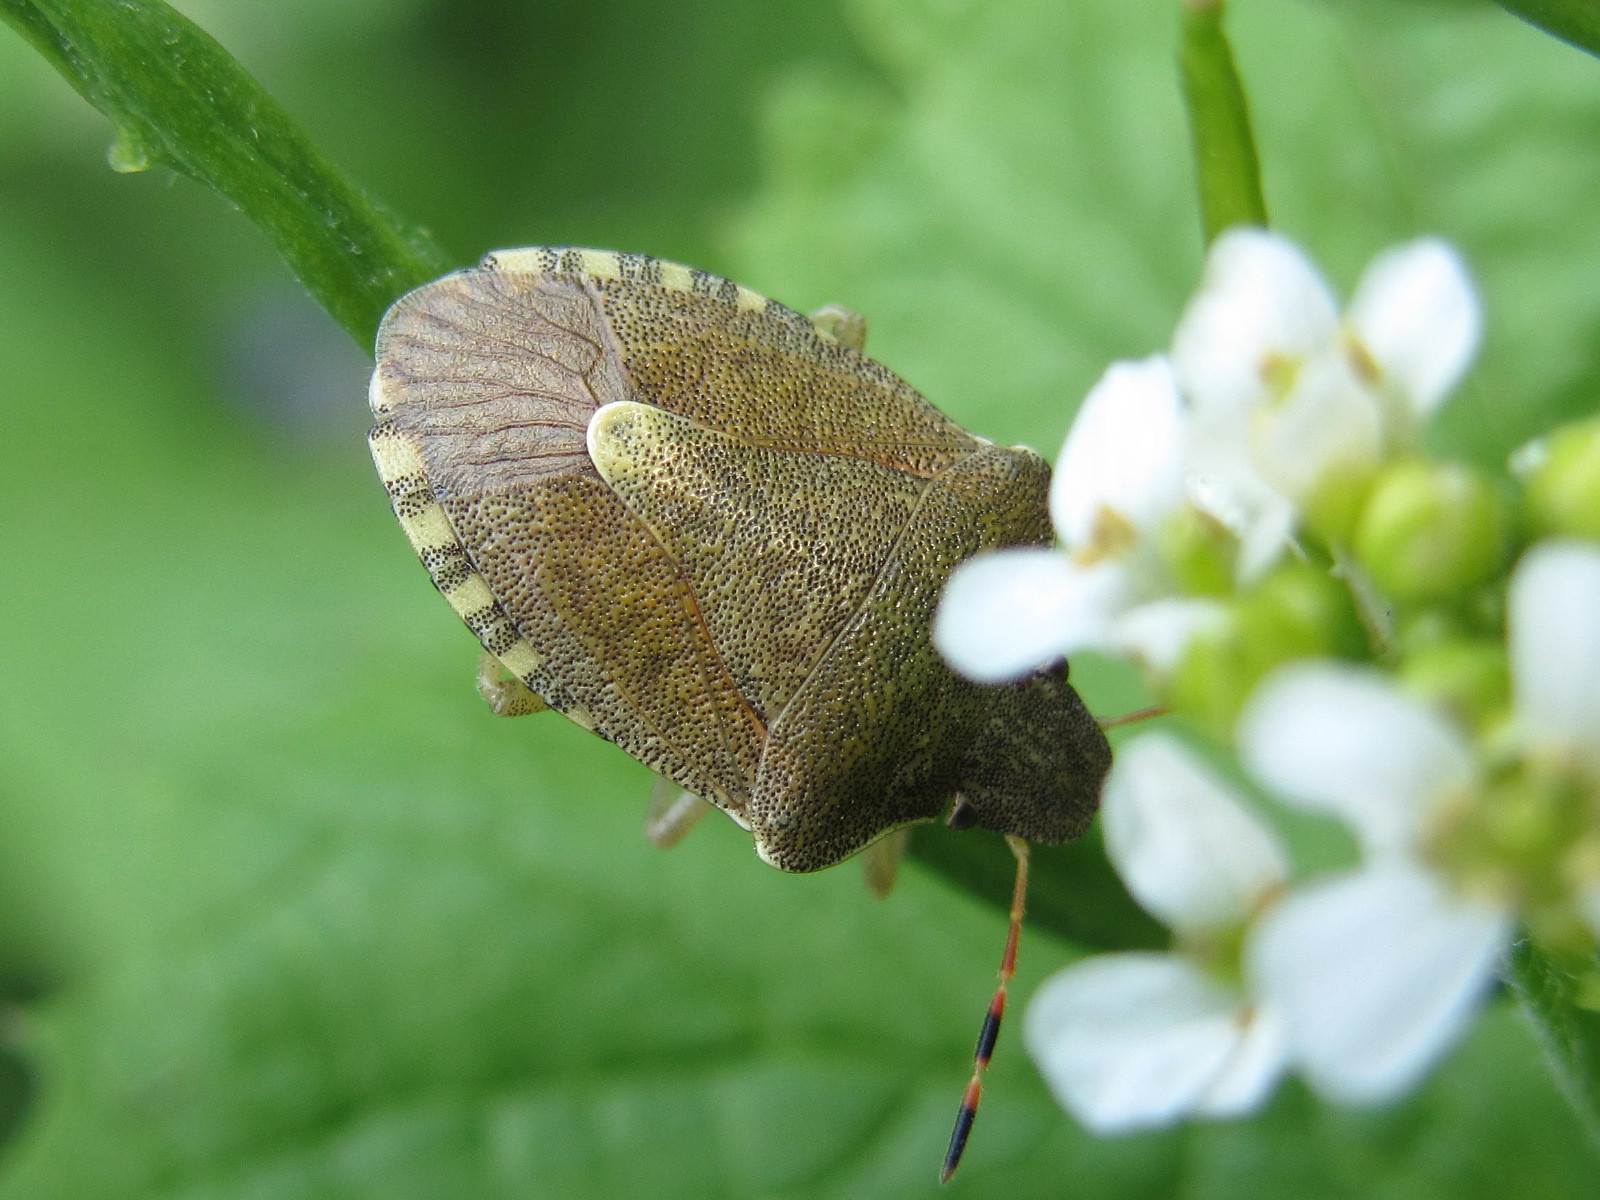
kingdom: Animalia
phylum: Arthropoda
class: Insecta
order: Hemiptera
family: Pentatomidae
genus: Holcostethus
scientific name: Holcostethus strictus
